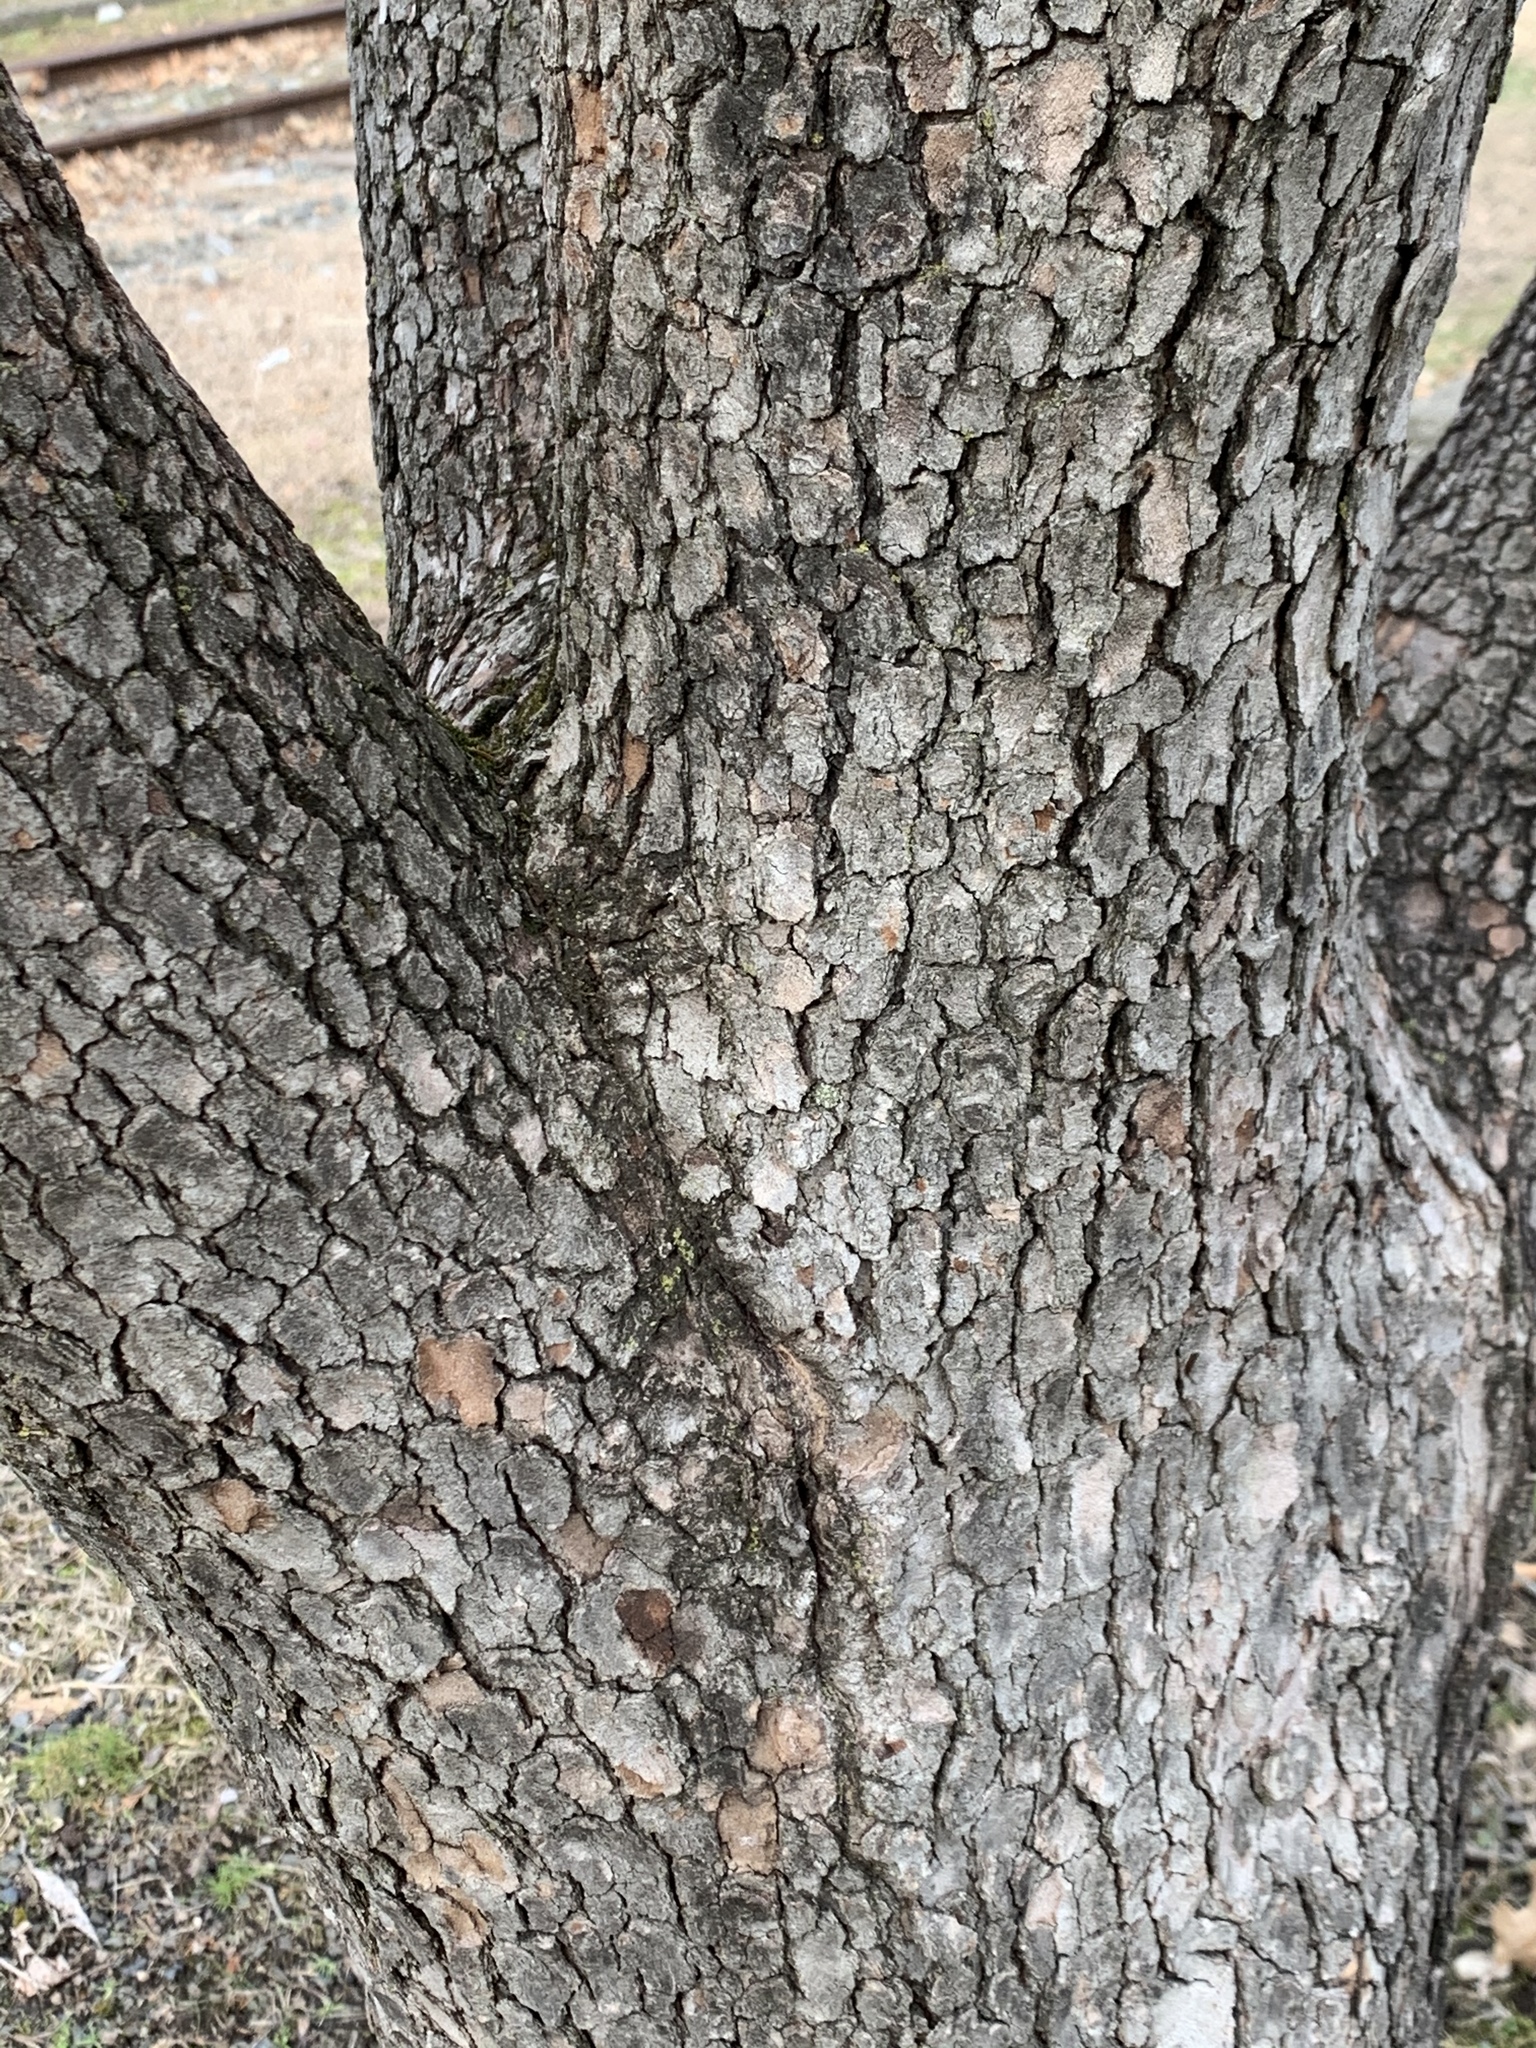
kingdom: Plantae
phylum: Tracheophyta
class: Magnoliopsida
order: Cornales
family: Cornaceae
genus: Cornus
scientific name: Cornus florida
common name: Flowering dogwood
